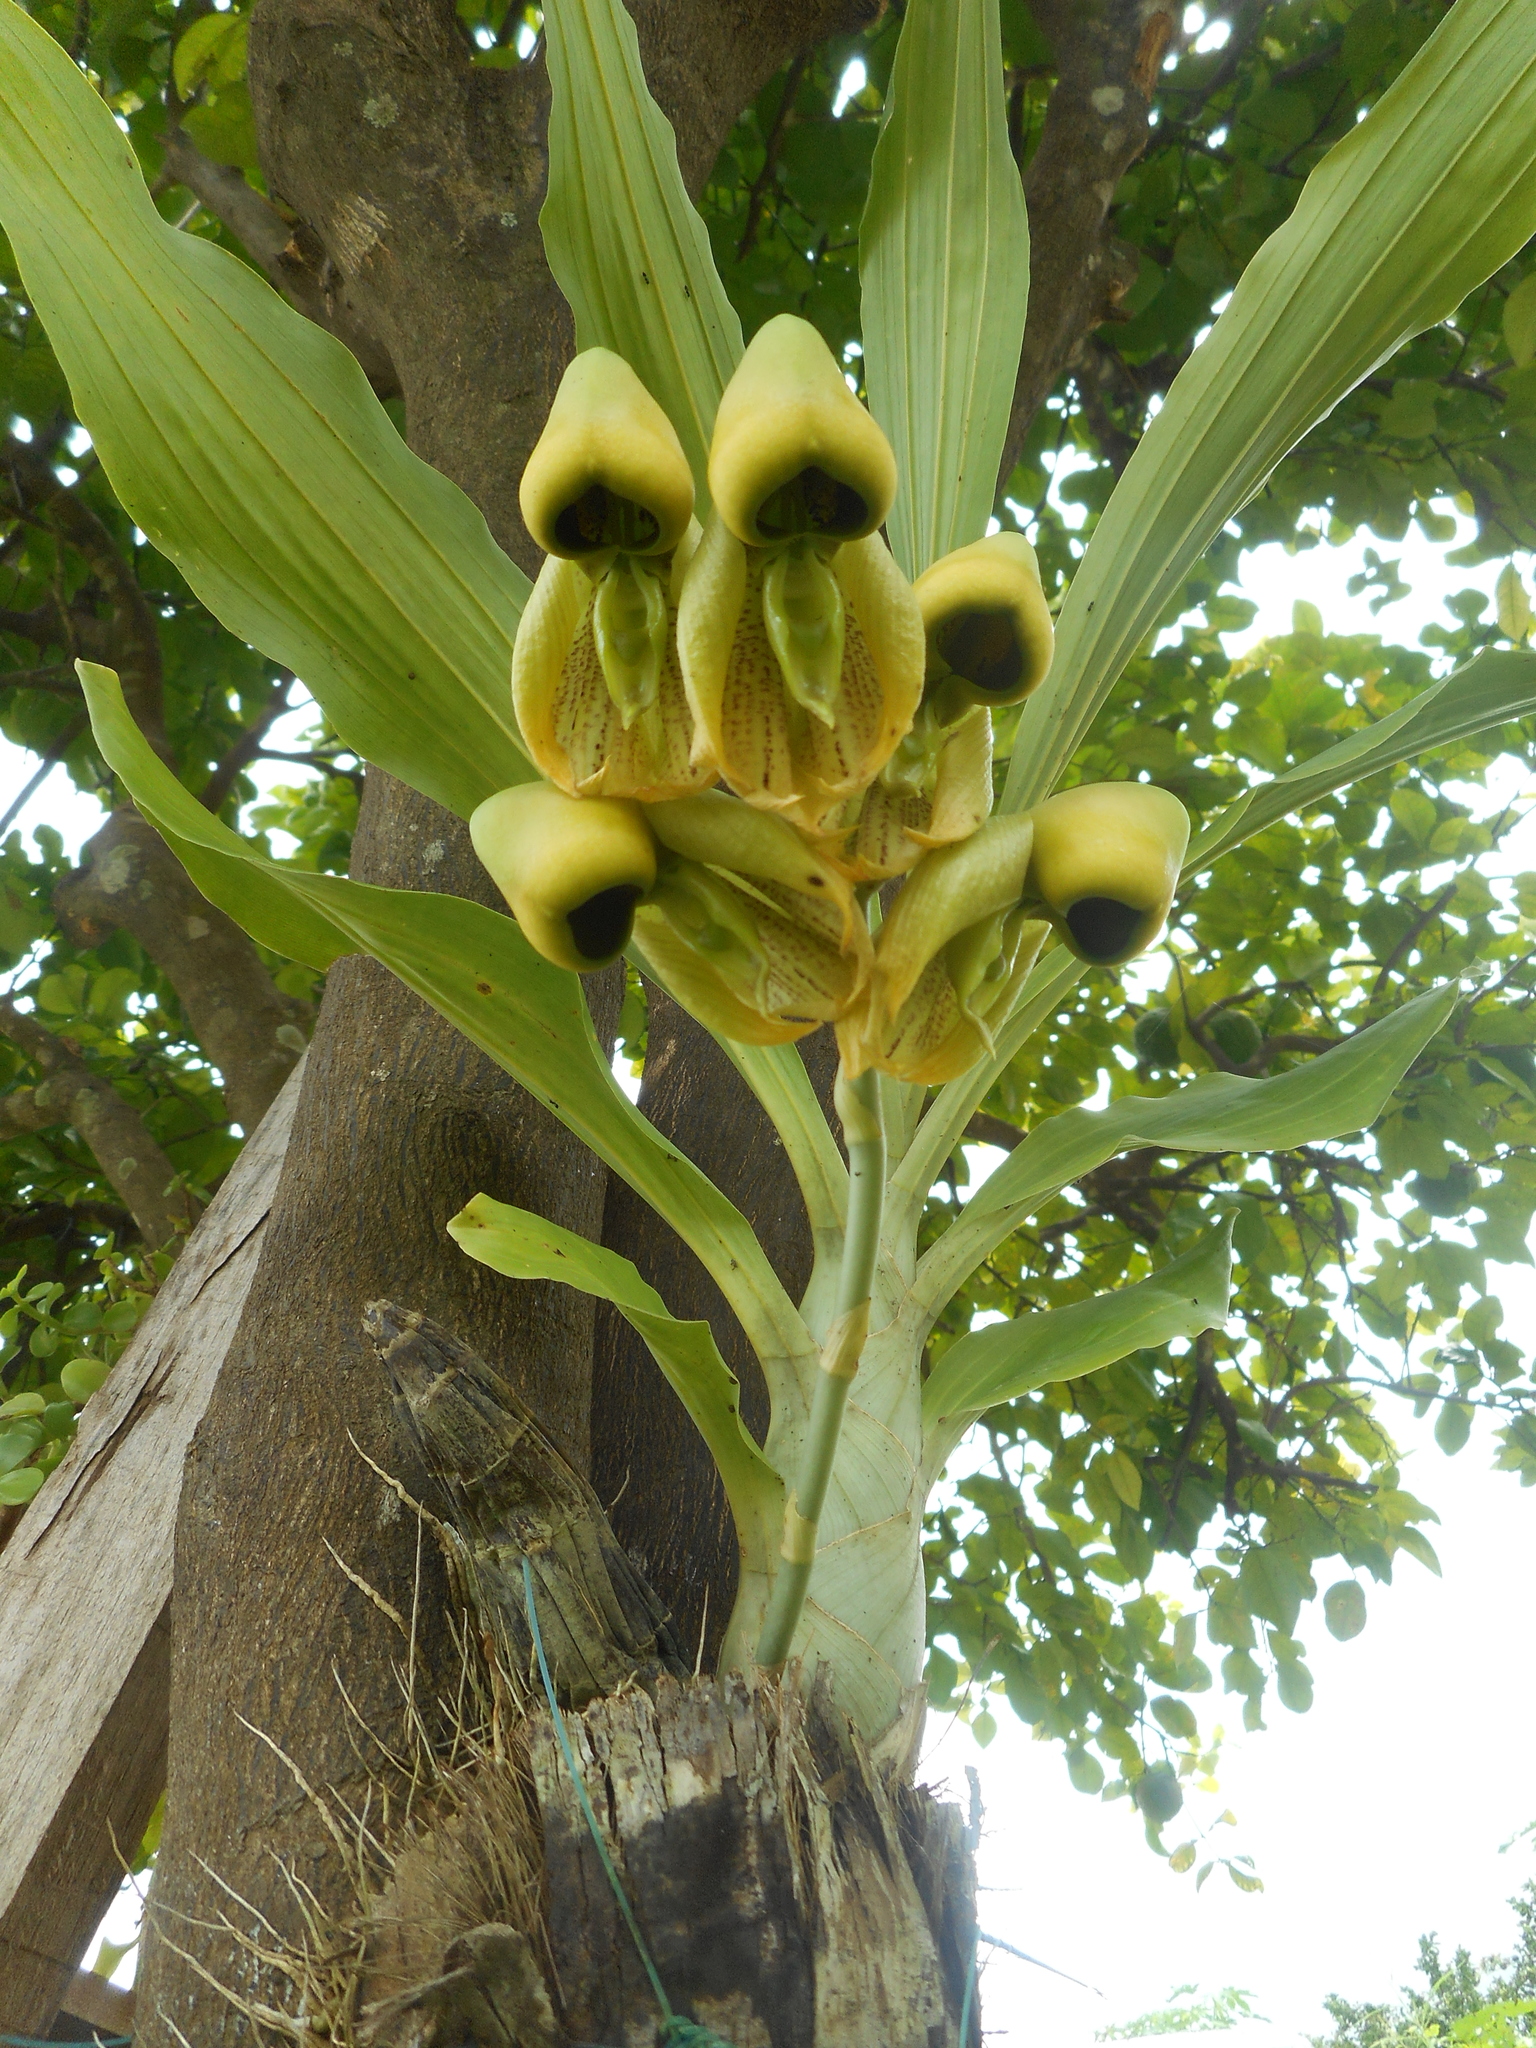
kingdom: Plantae
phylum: Tracheophyta
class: Liliopsida
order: Asparagales
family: Orchidaceae
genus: Catasetum
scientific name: Catasetum integerrimum
